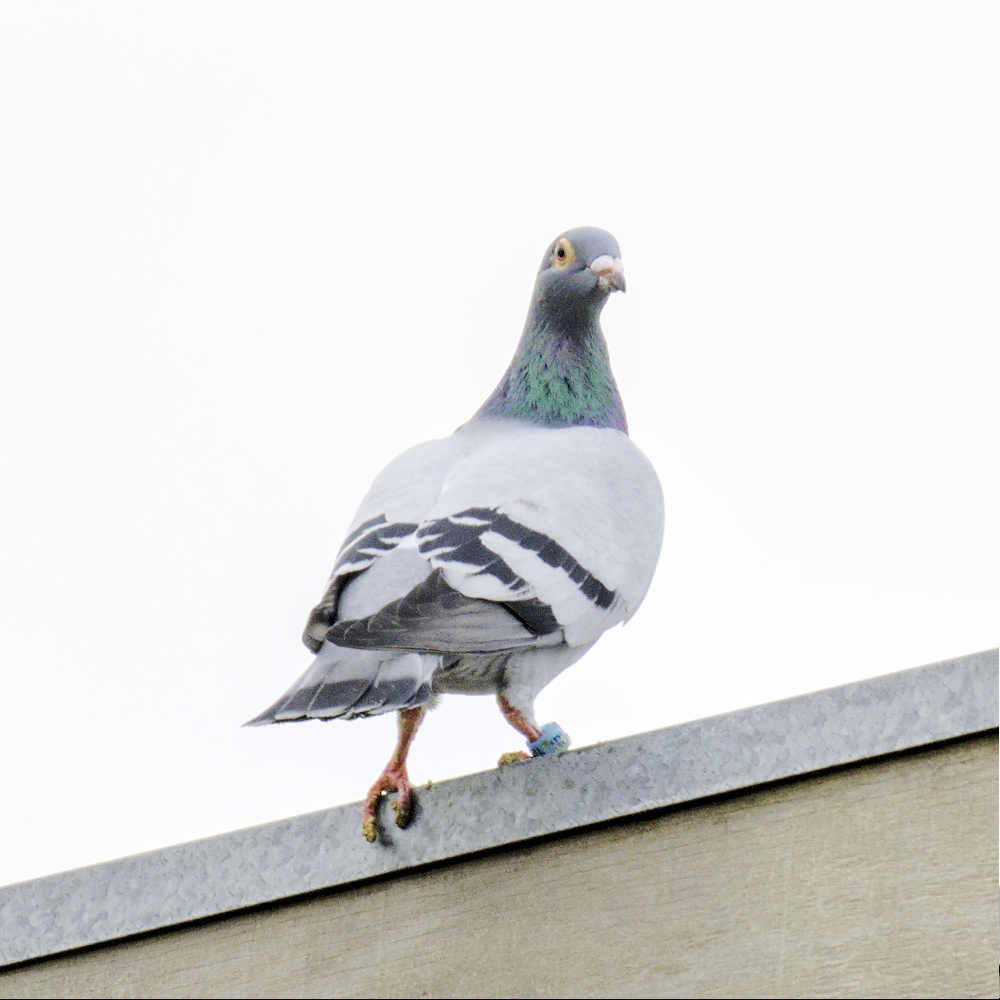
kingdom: Animalia
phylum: Chordata
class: Aves
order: Columbiformes
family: Columbidae
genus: Columba
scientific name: Columba livia
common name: Rock pigeon
